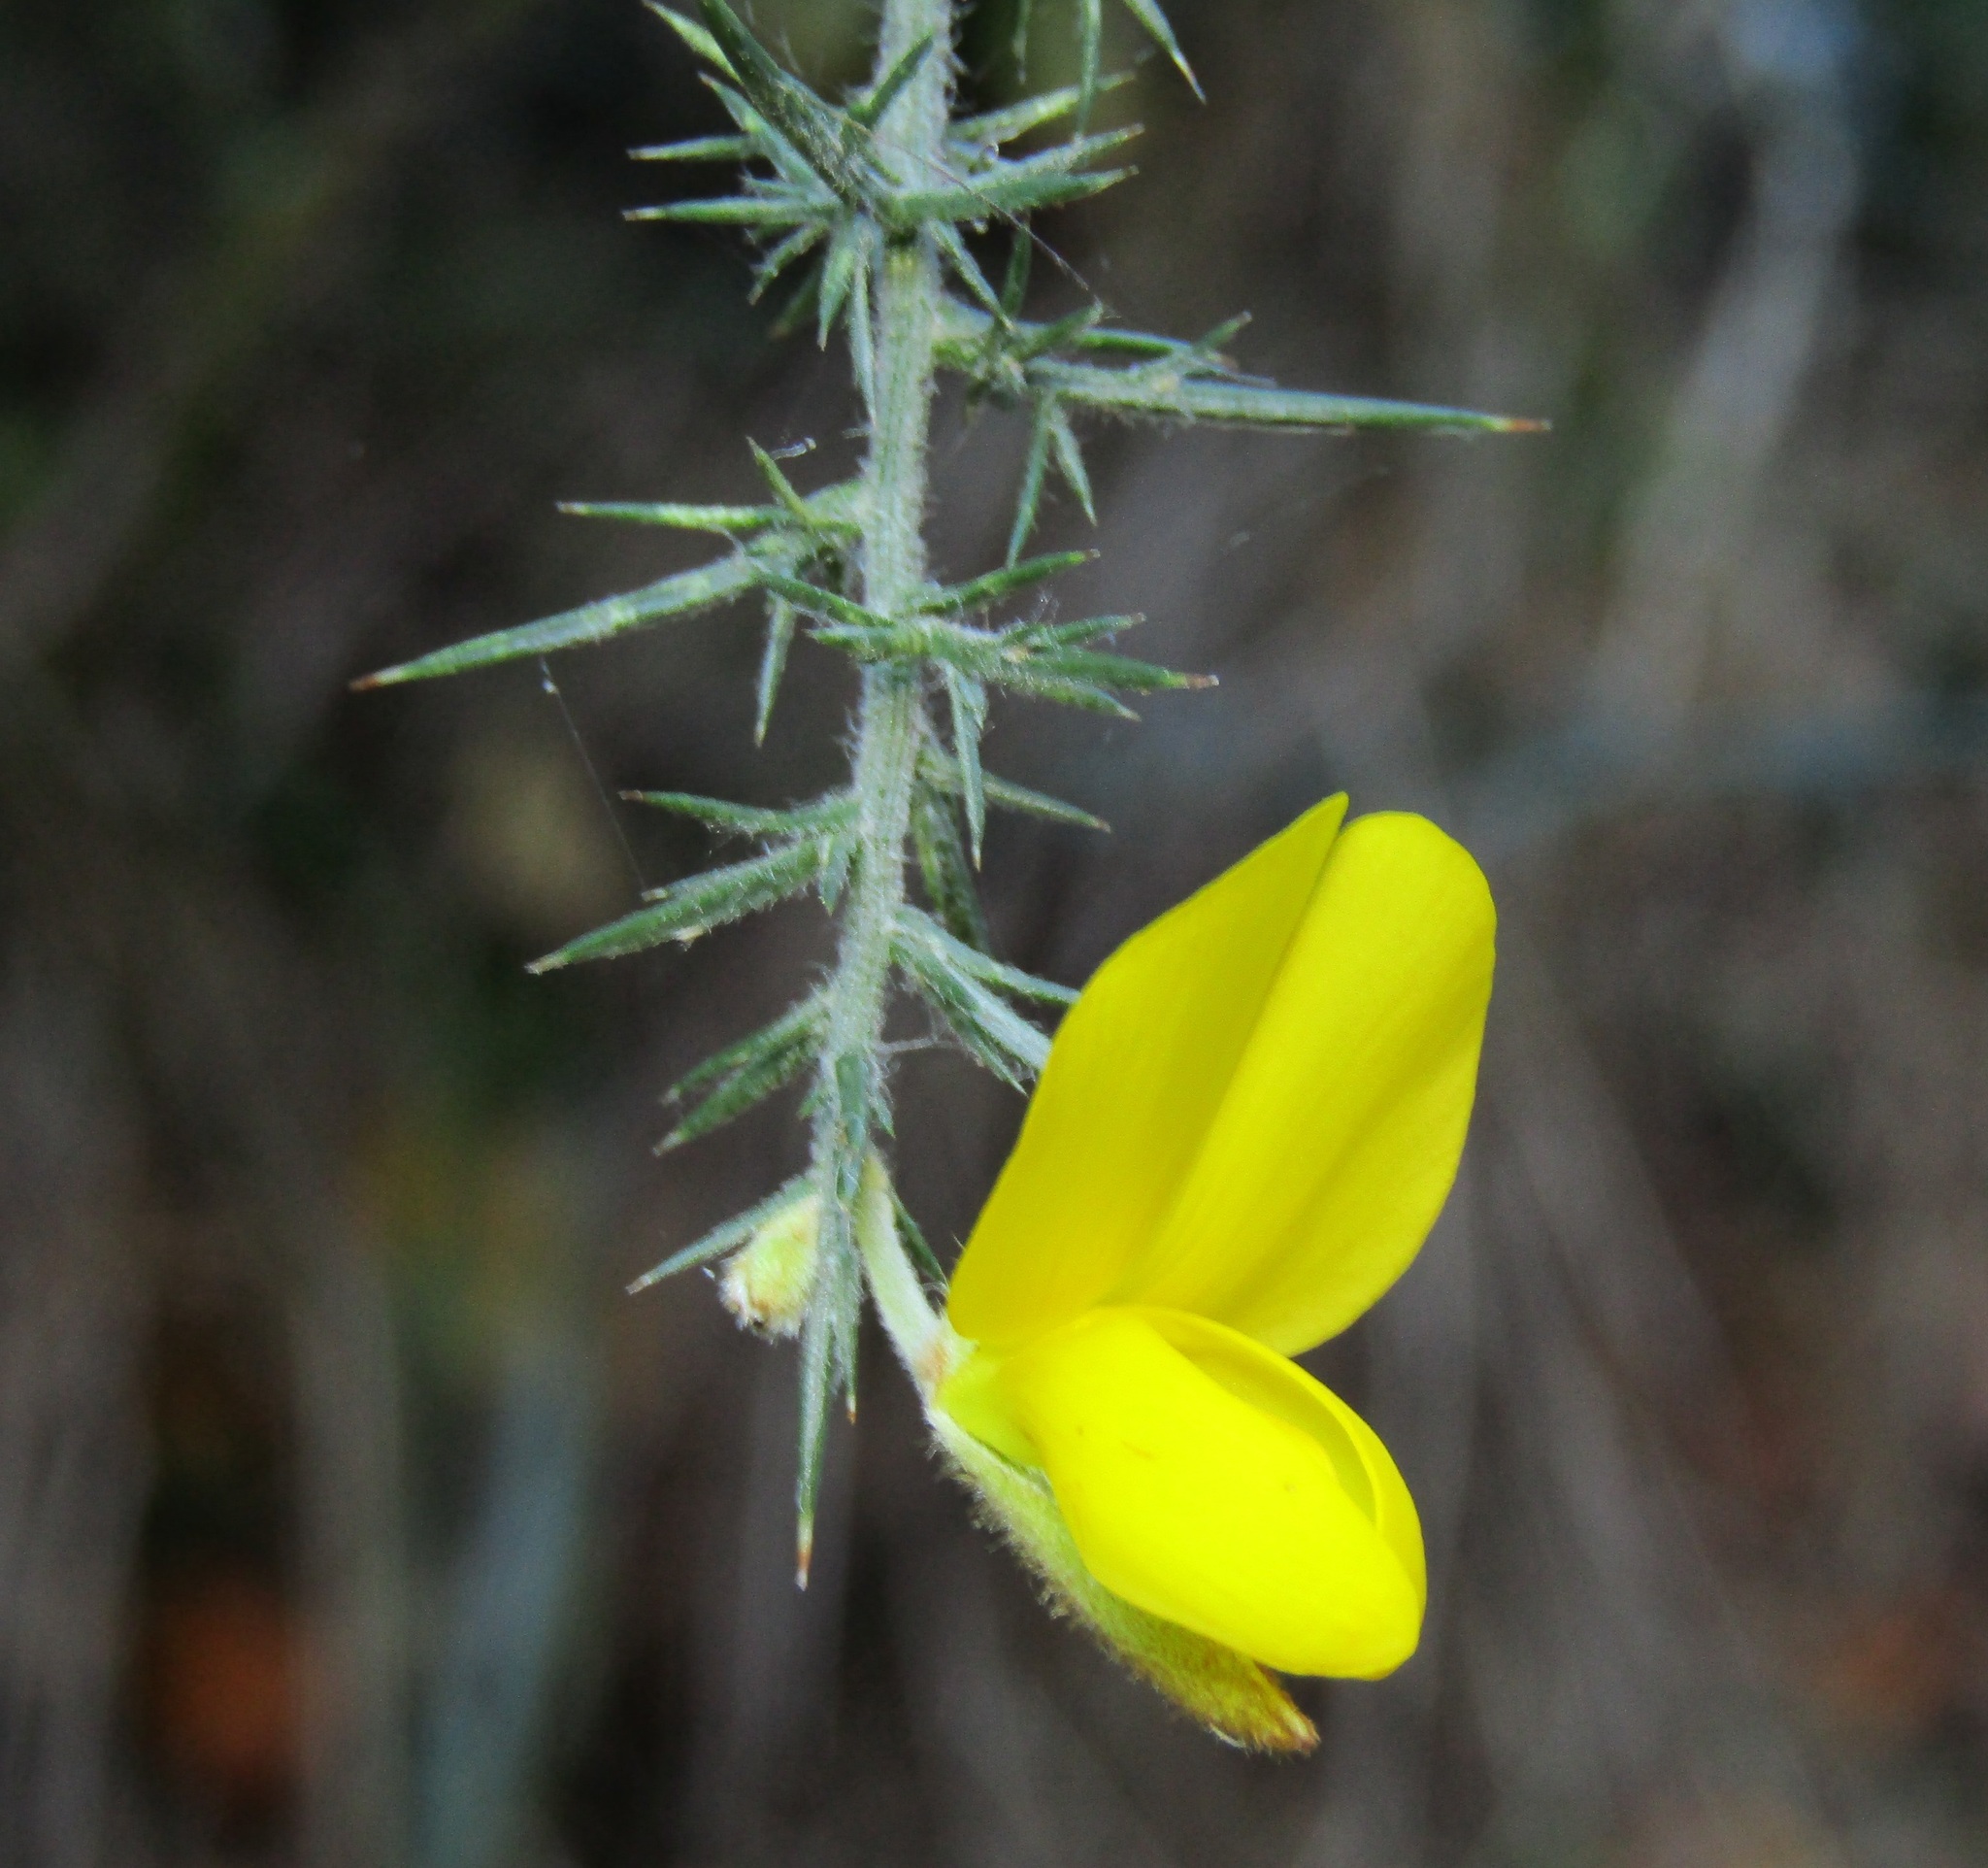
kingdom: Plantae
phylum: Tracheophyta
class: Magnoliopsida
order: Fabales
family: Fabaceae
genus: Ulex
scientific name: Ulex europaeus
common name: Common gorse
